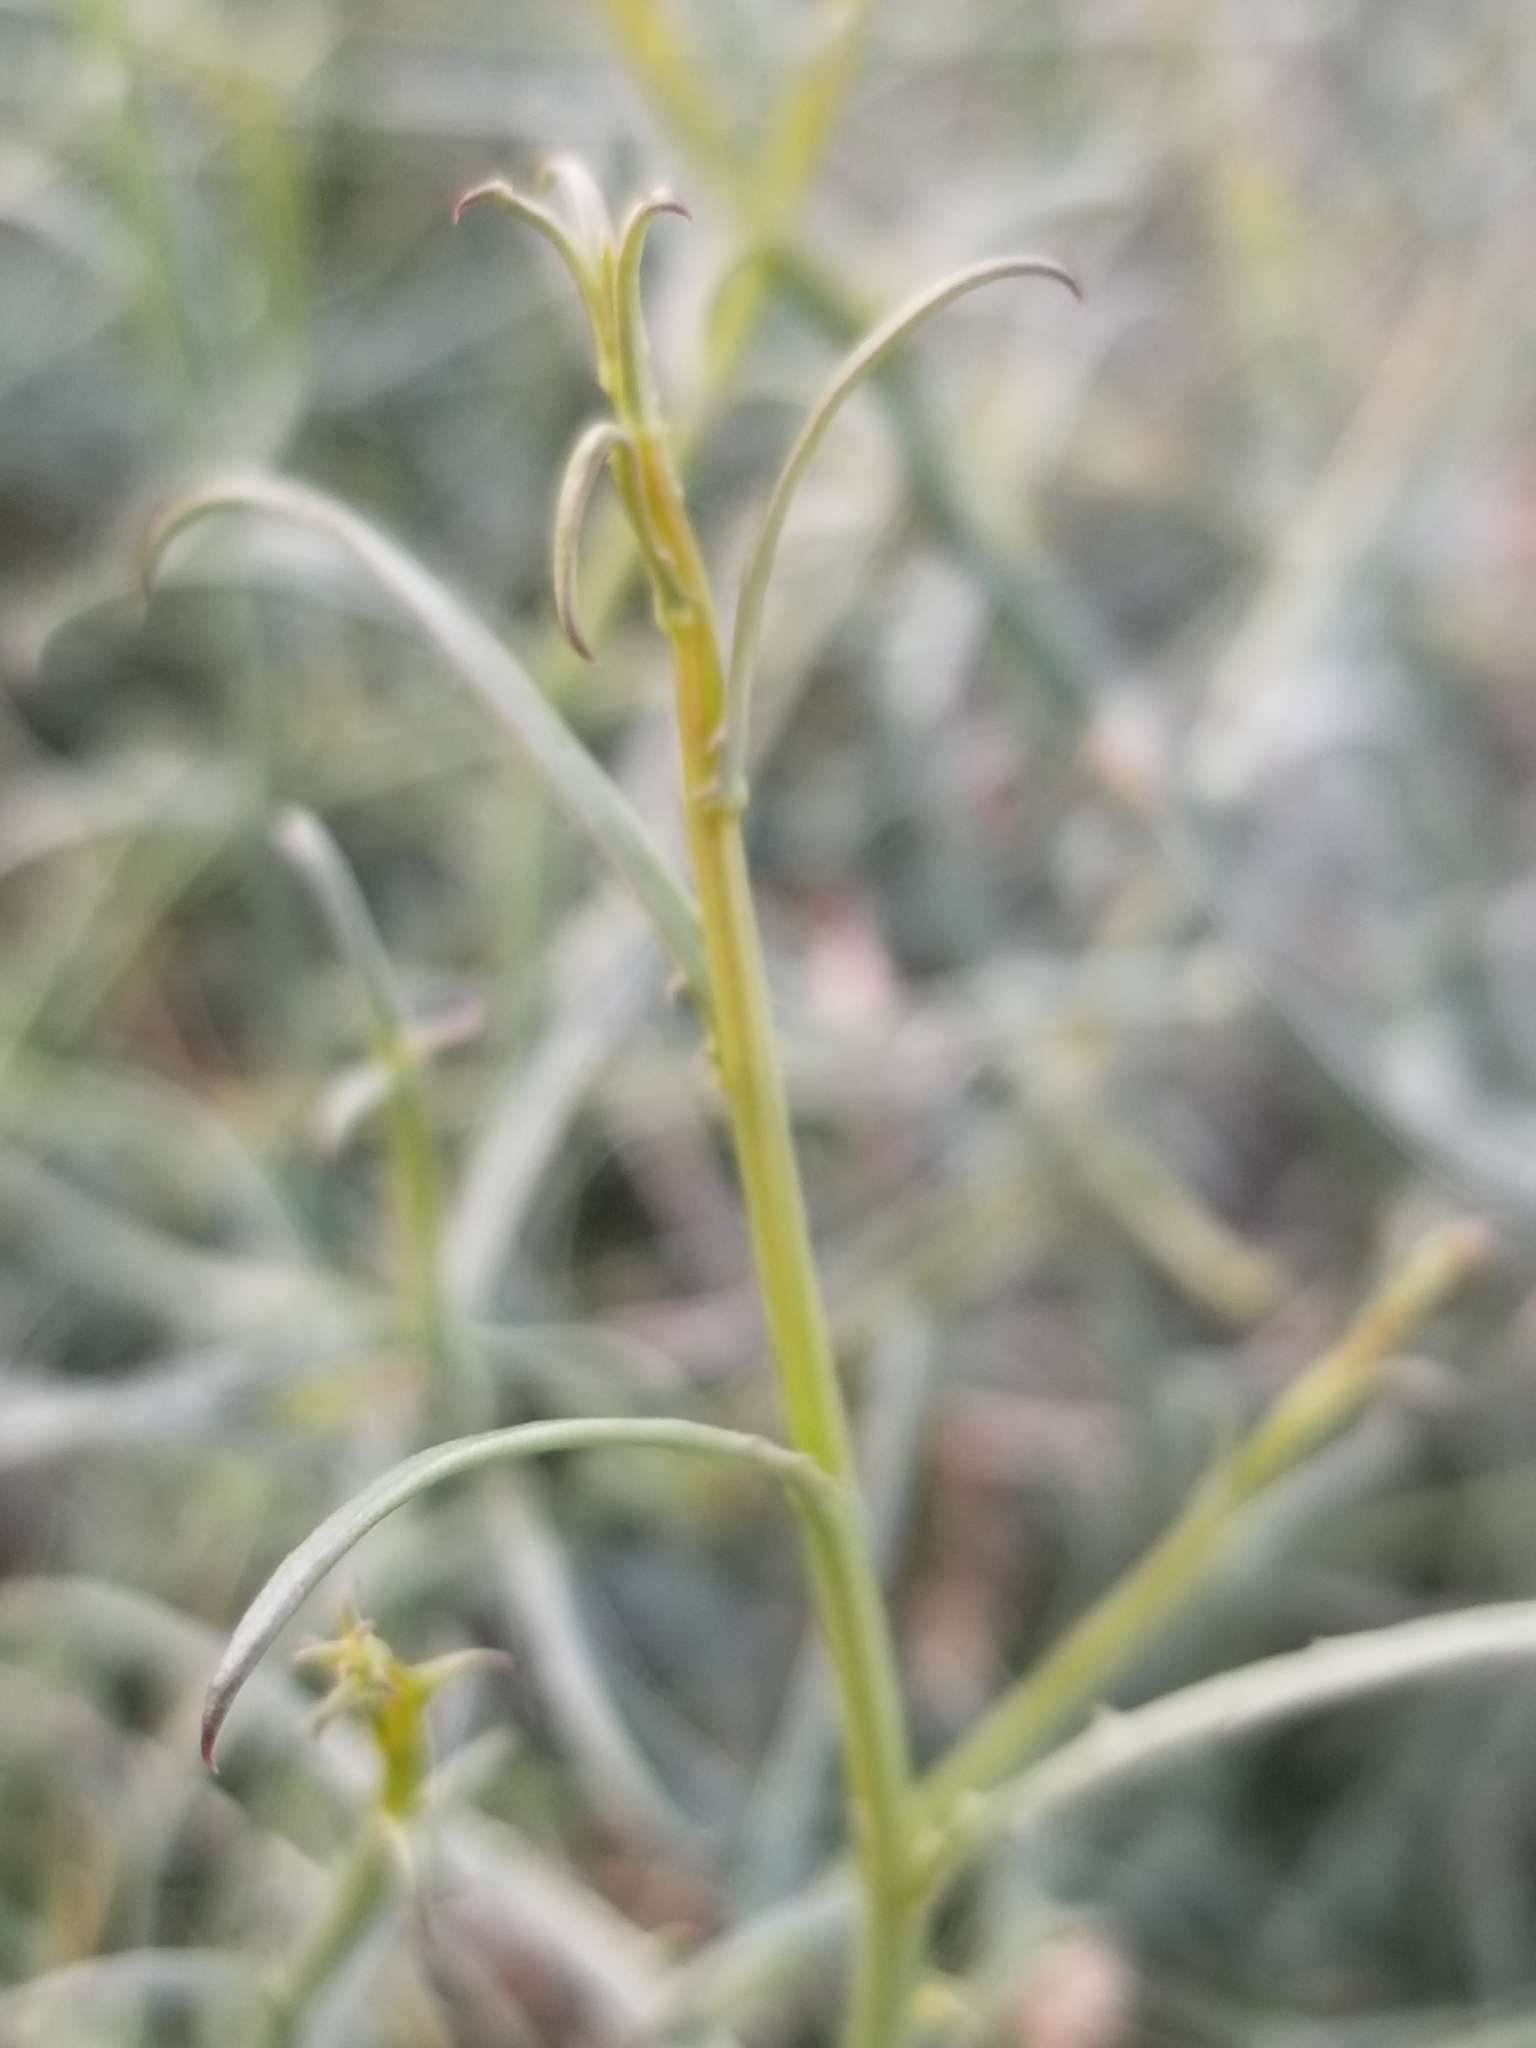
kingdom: Plantae
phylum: Tracheophyta
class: Magnoliopsida
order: Asterales
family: Asteraceae
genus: Stephanomeria
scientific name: Stephanomeria pauciflora
